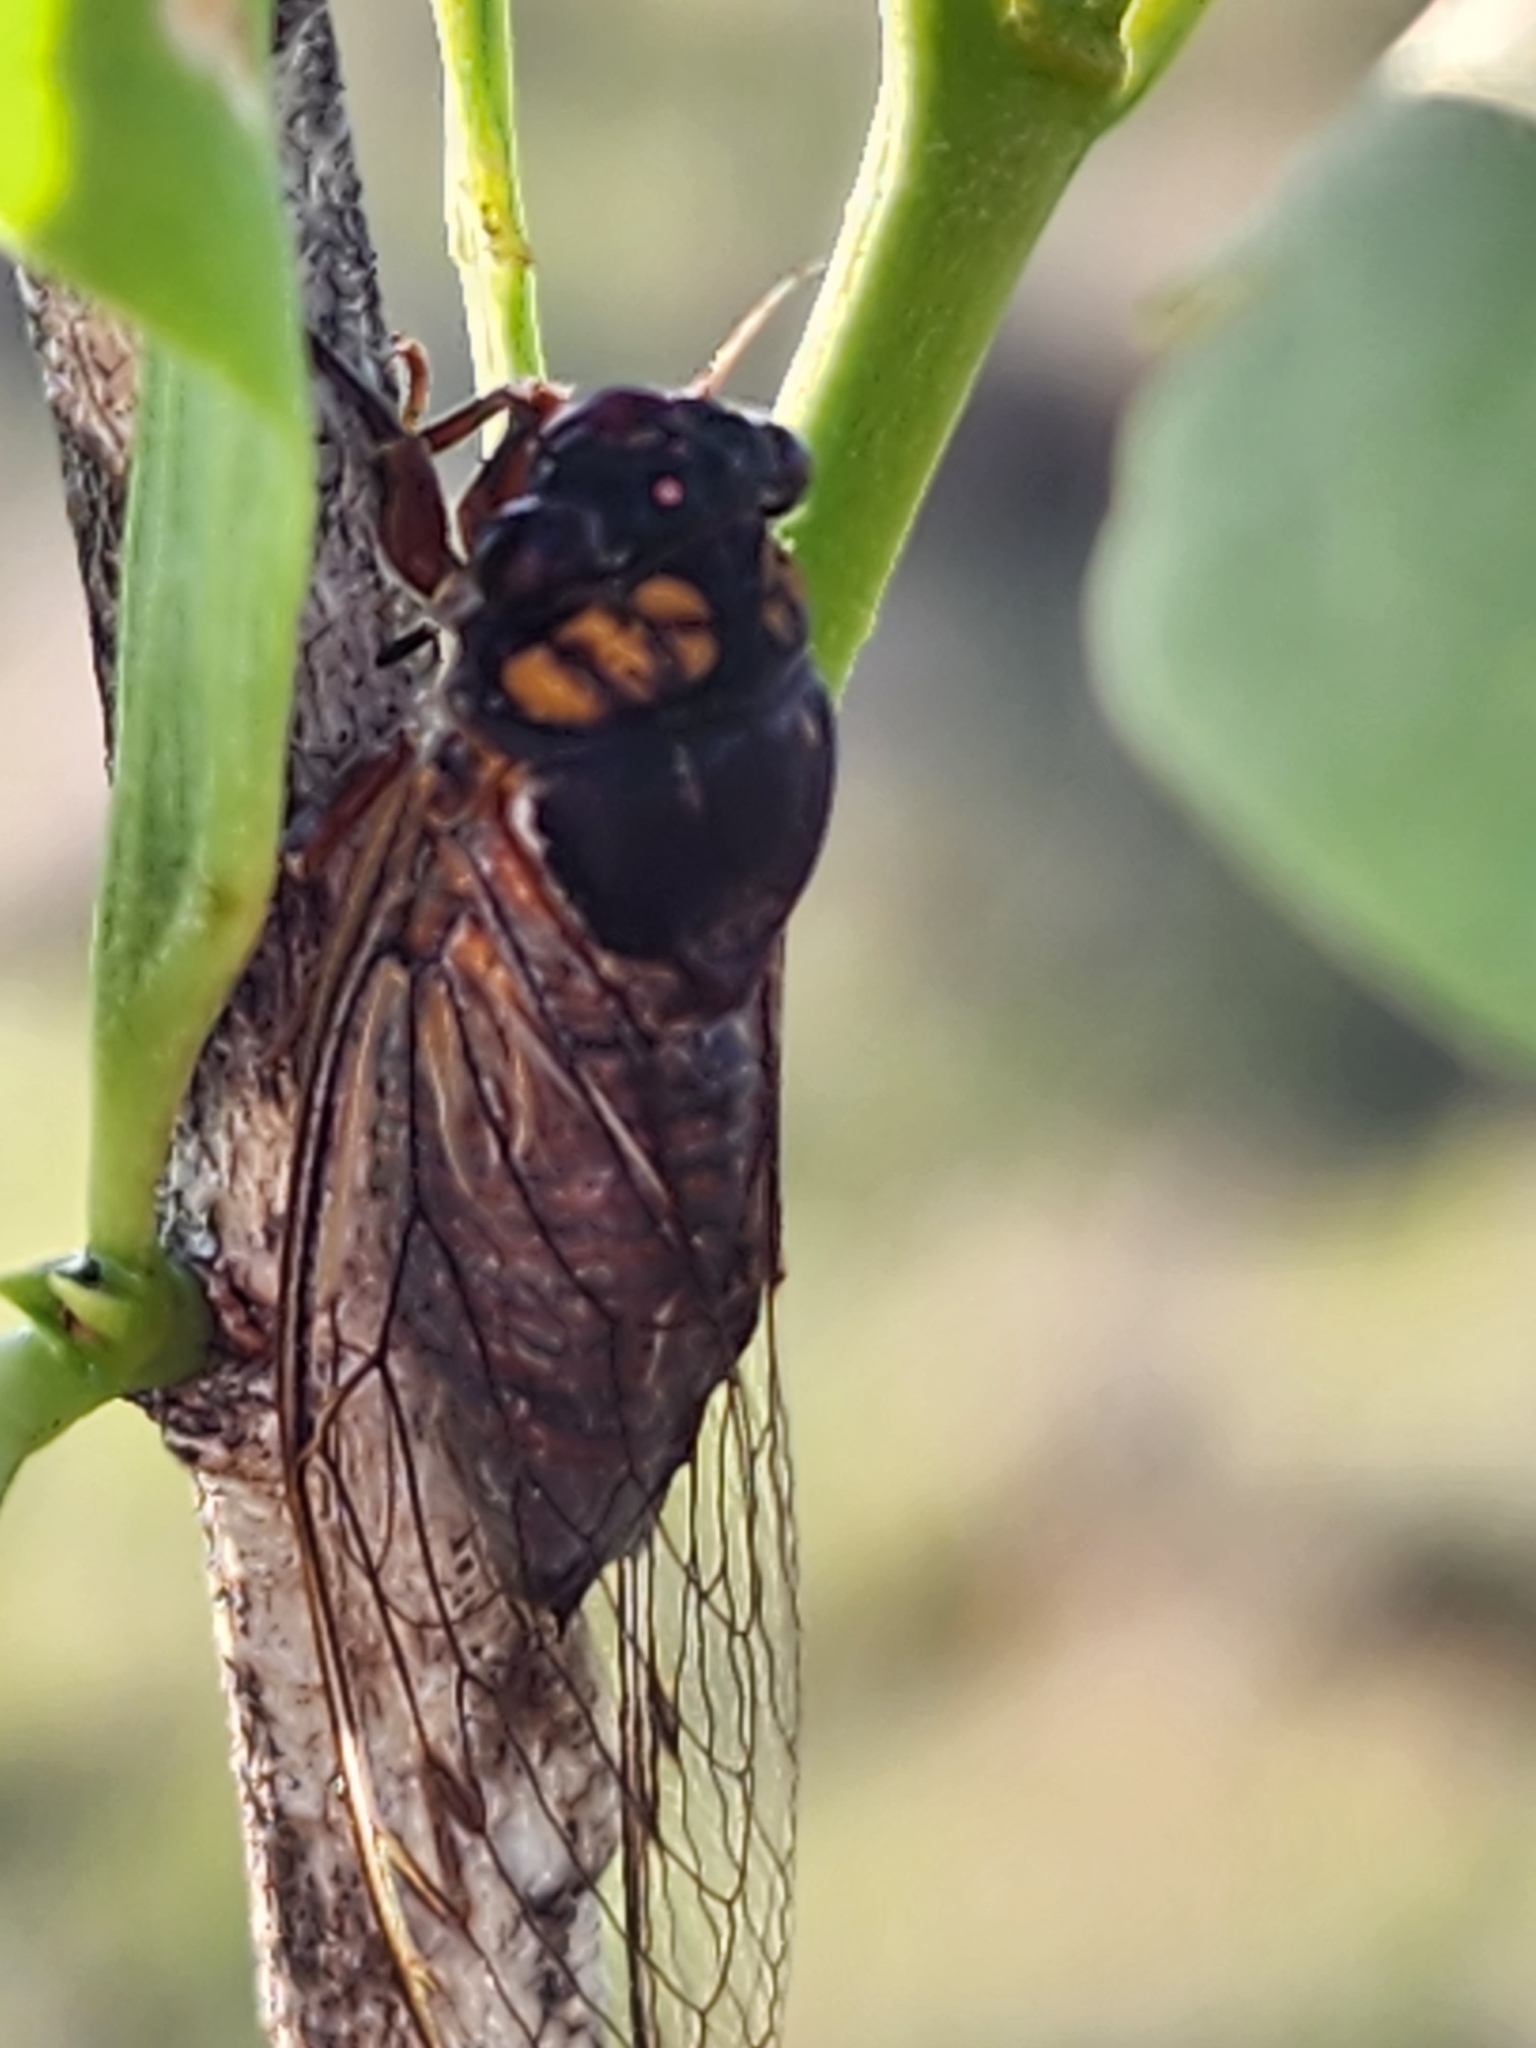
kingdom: Animalia
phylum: Arthropoda
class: Insecta
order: Hemiptera
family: Cicadidae
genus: Tryella
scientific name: Tryella willsi
